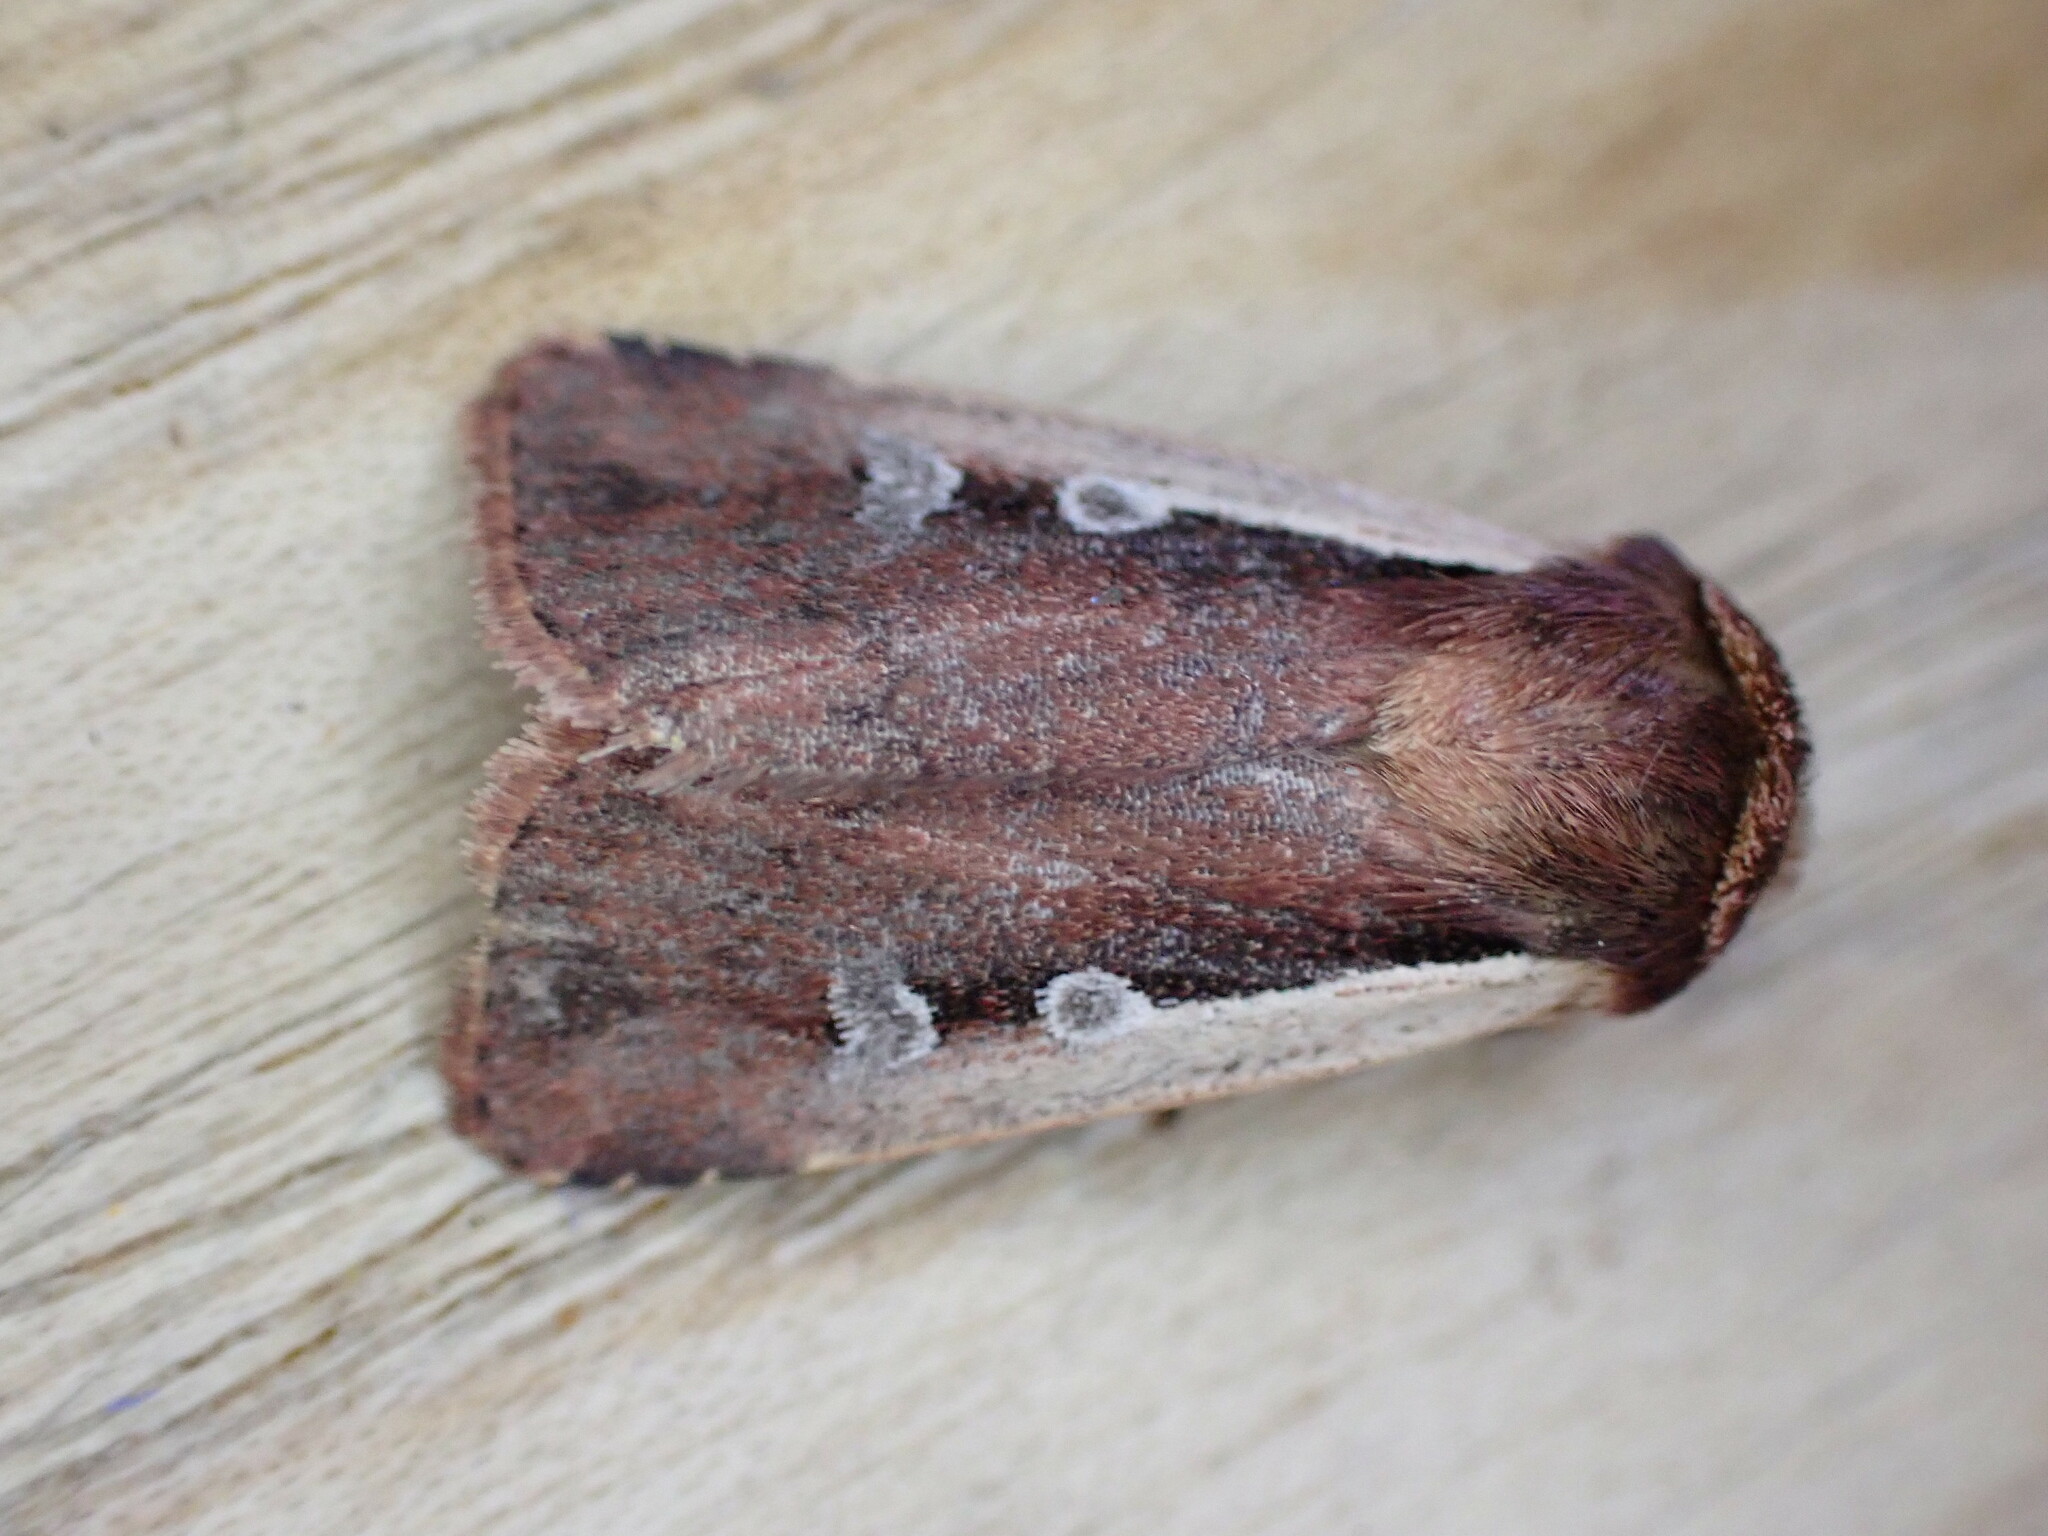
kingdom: Animalia
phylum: Arthropoda
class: Insecta
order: Lepidoptera
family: Noctuidae
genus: Ochropleura
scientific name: Ochropleura plecta
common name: Flame shoulder
